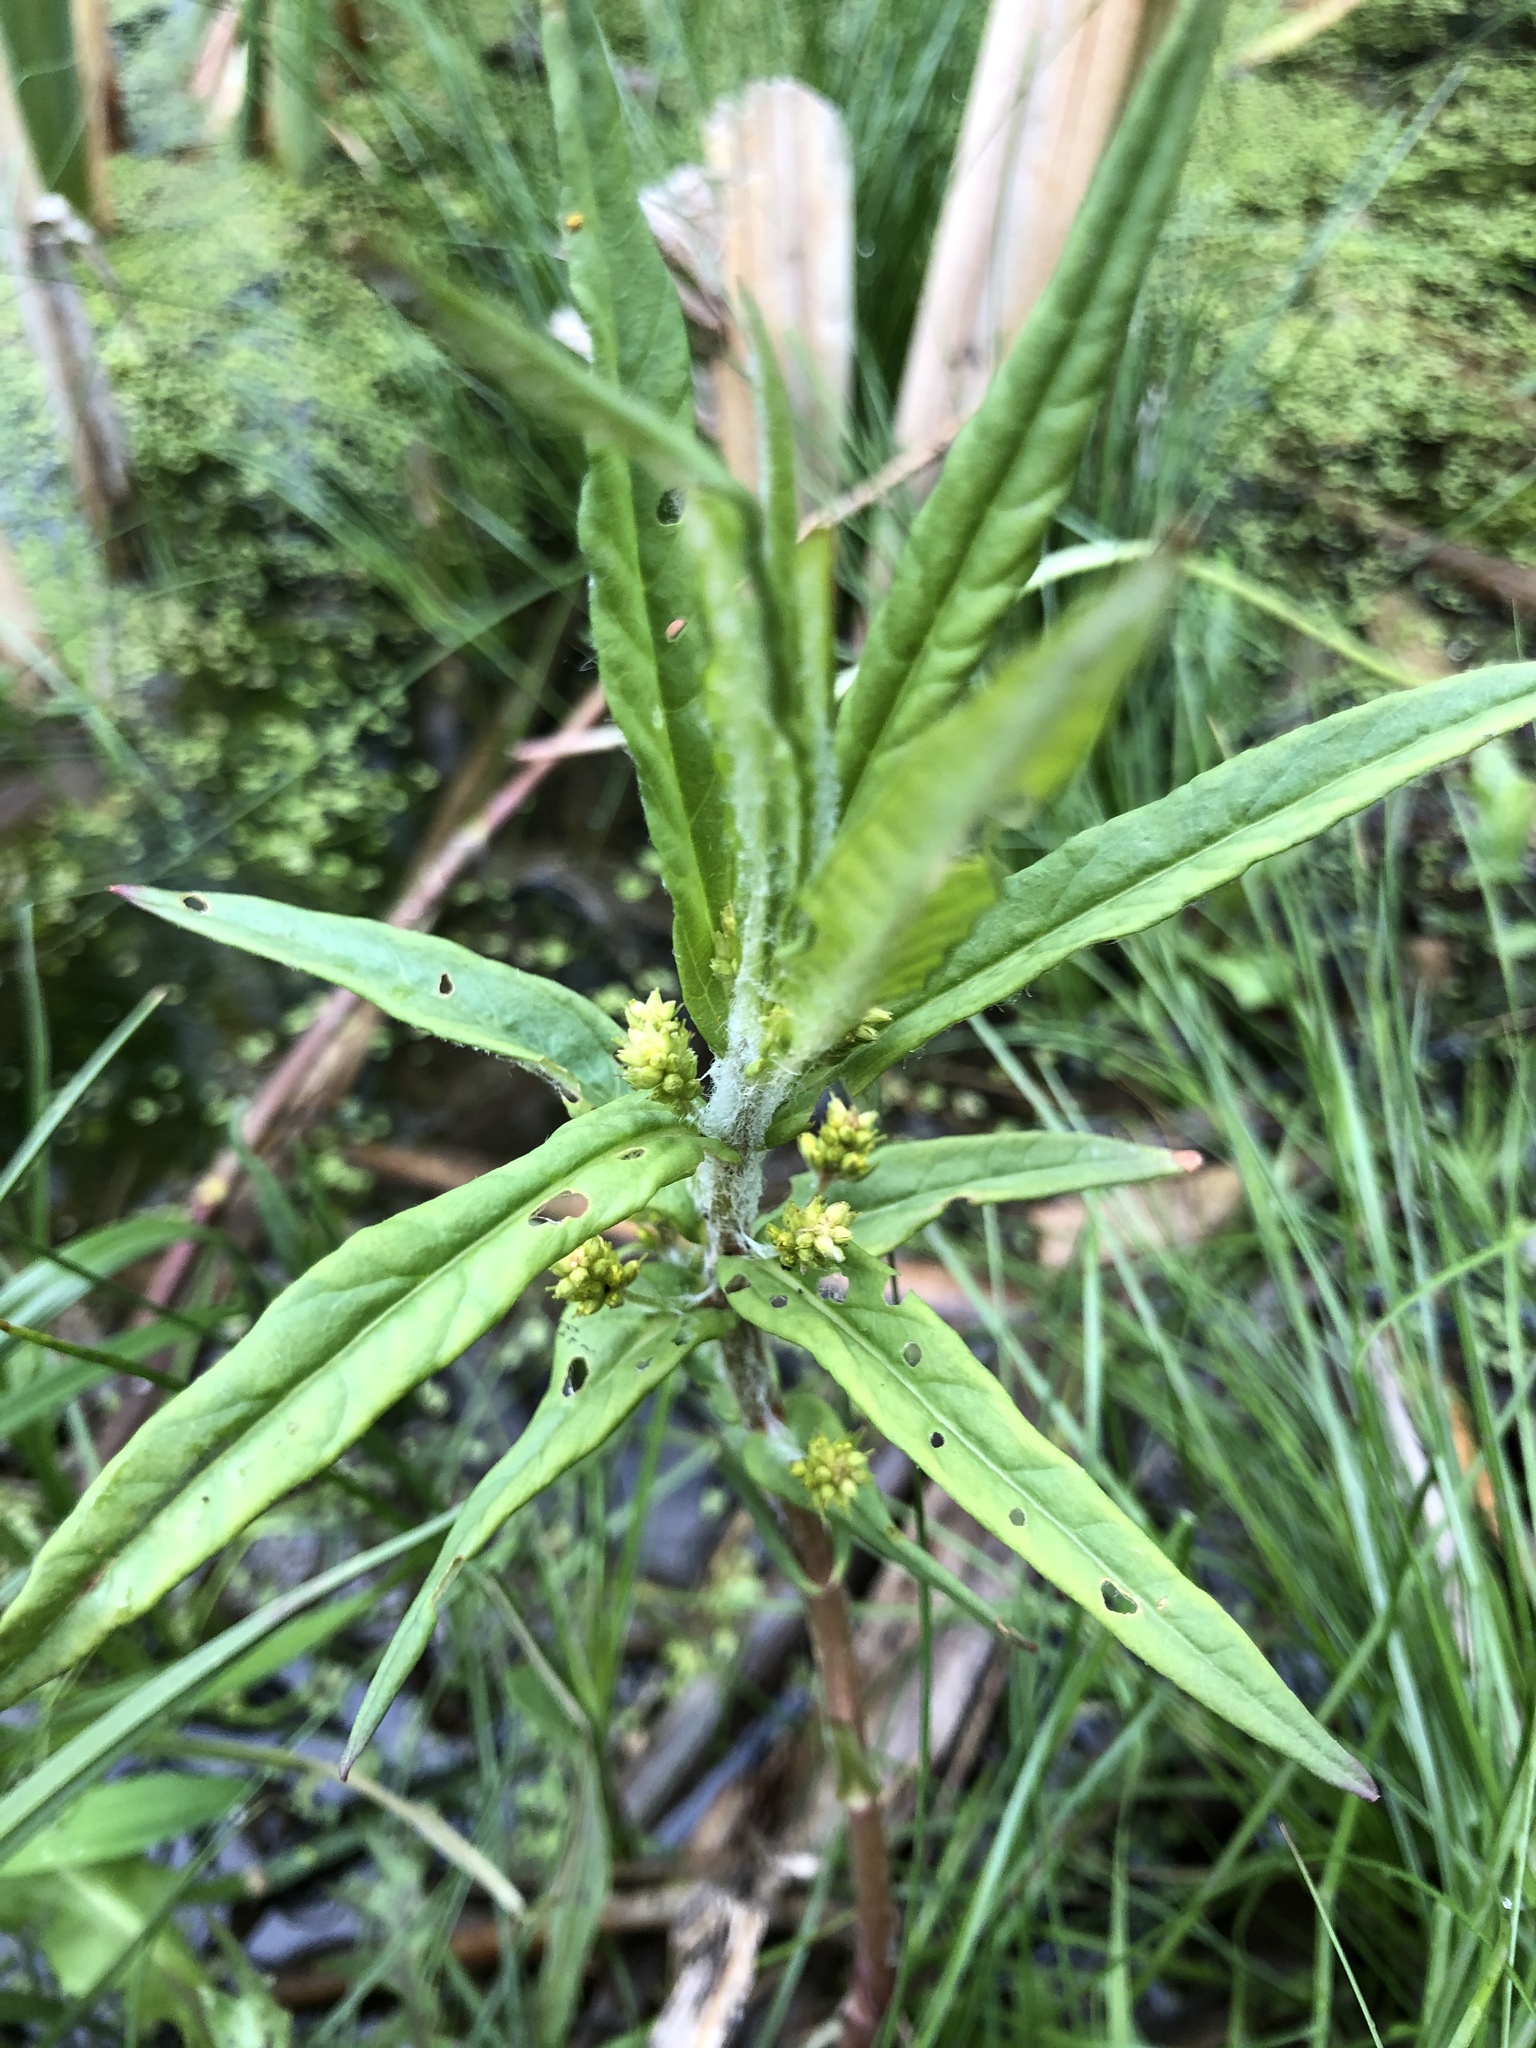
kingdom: Plantae
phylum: Tracheophyta
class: Magnoliopsida
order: Ericales
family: Primulaceae
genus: Lysimachia
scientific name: Lysimachia thyrsiflora
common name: Tufted loosestrife
